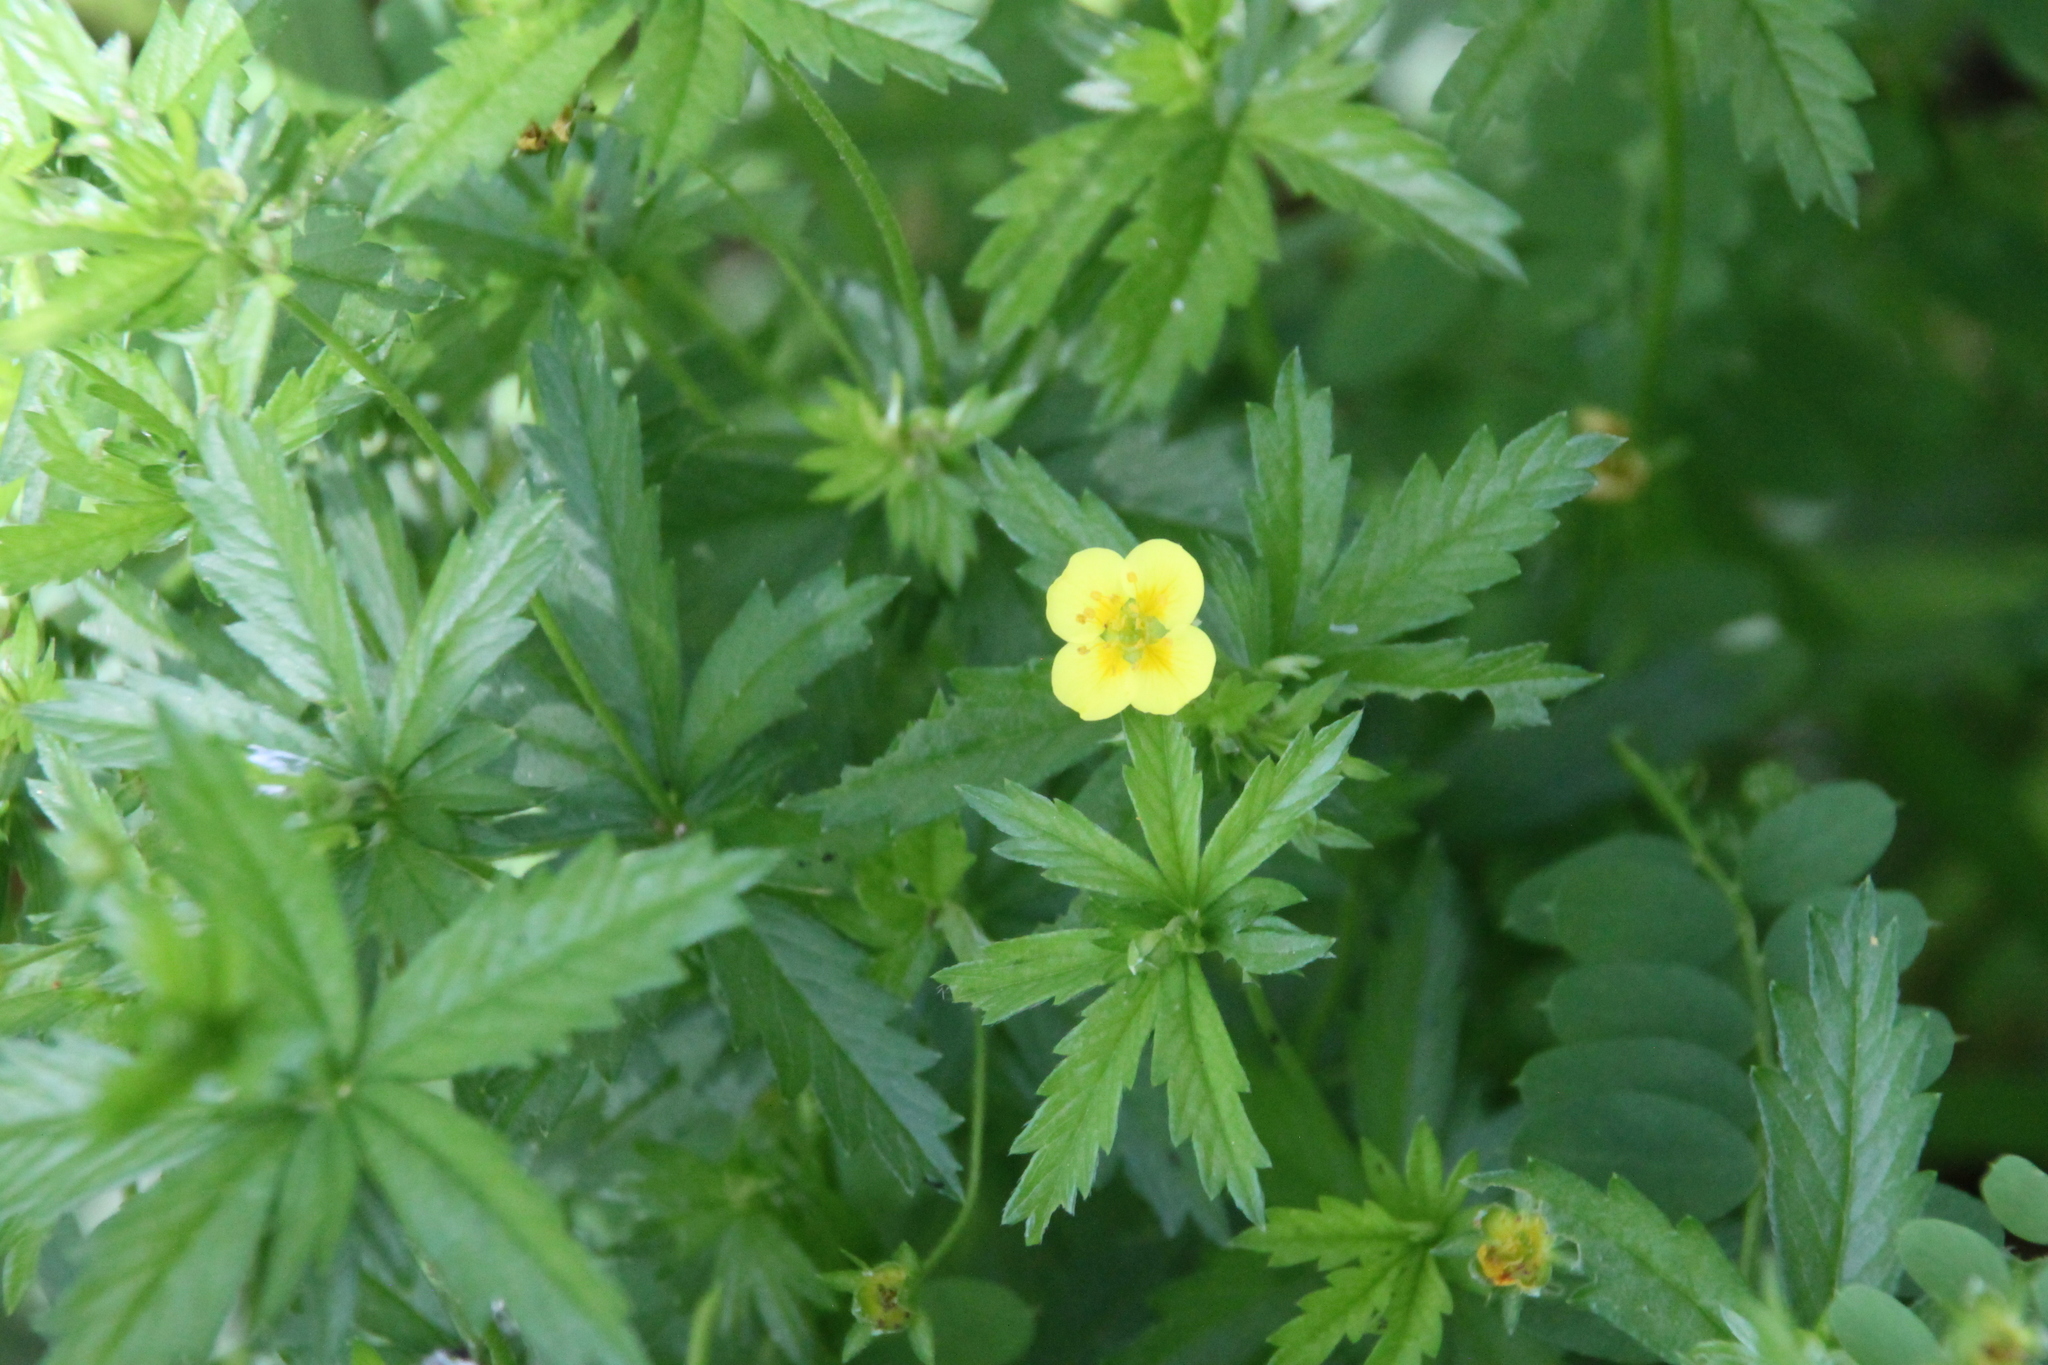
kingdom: Plantae
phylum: Tracheophyta
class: Magnoliopsida
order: Rosales
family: Rosaceae
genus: Potentilla
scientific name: Potentilla erecta
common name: Tormentil
